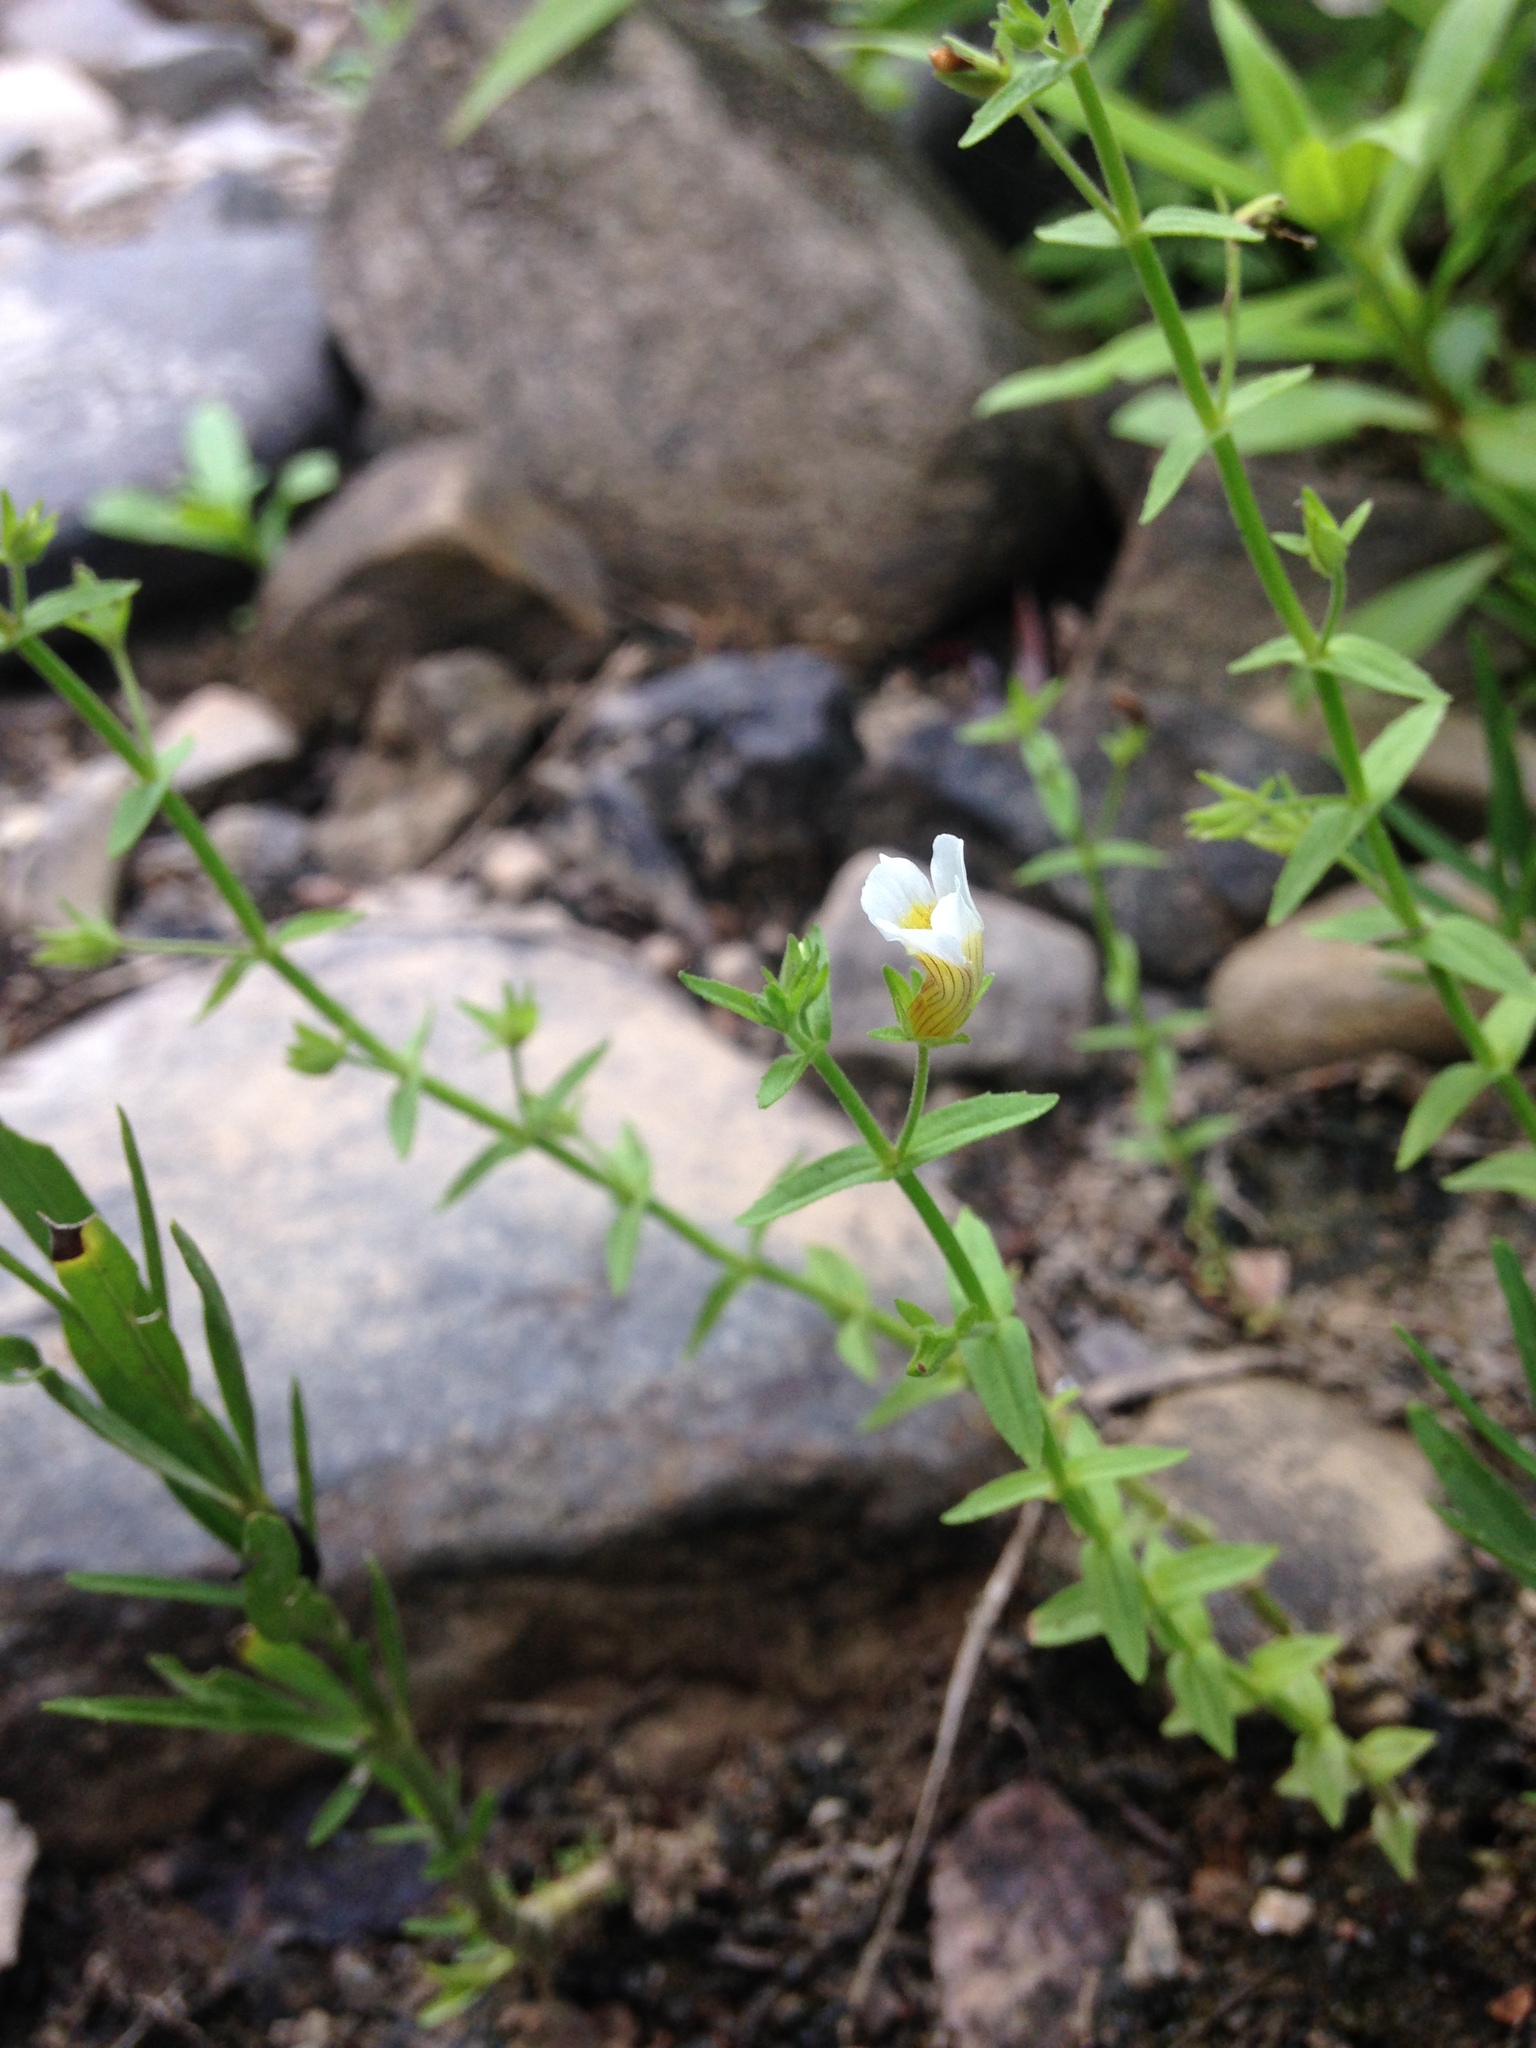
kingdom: Plantae
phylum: Tracheophyta
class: Magnoliopsida
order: Lamiales
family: Plantaginaceae
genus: Gratiola
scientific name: Gratiola brevifolia
